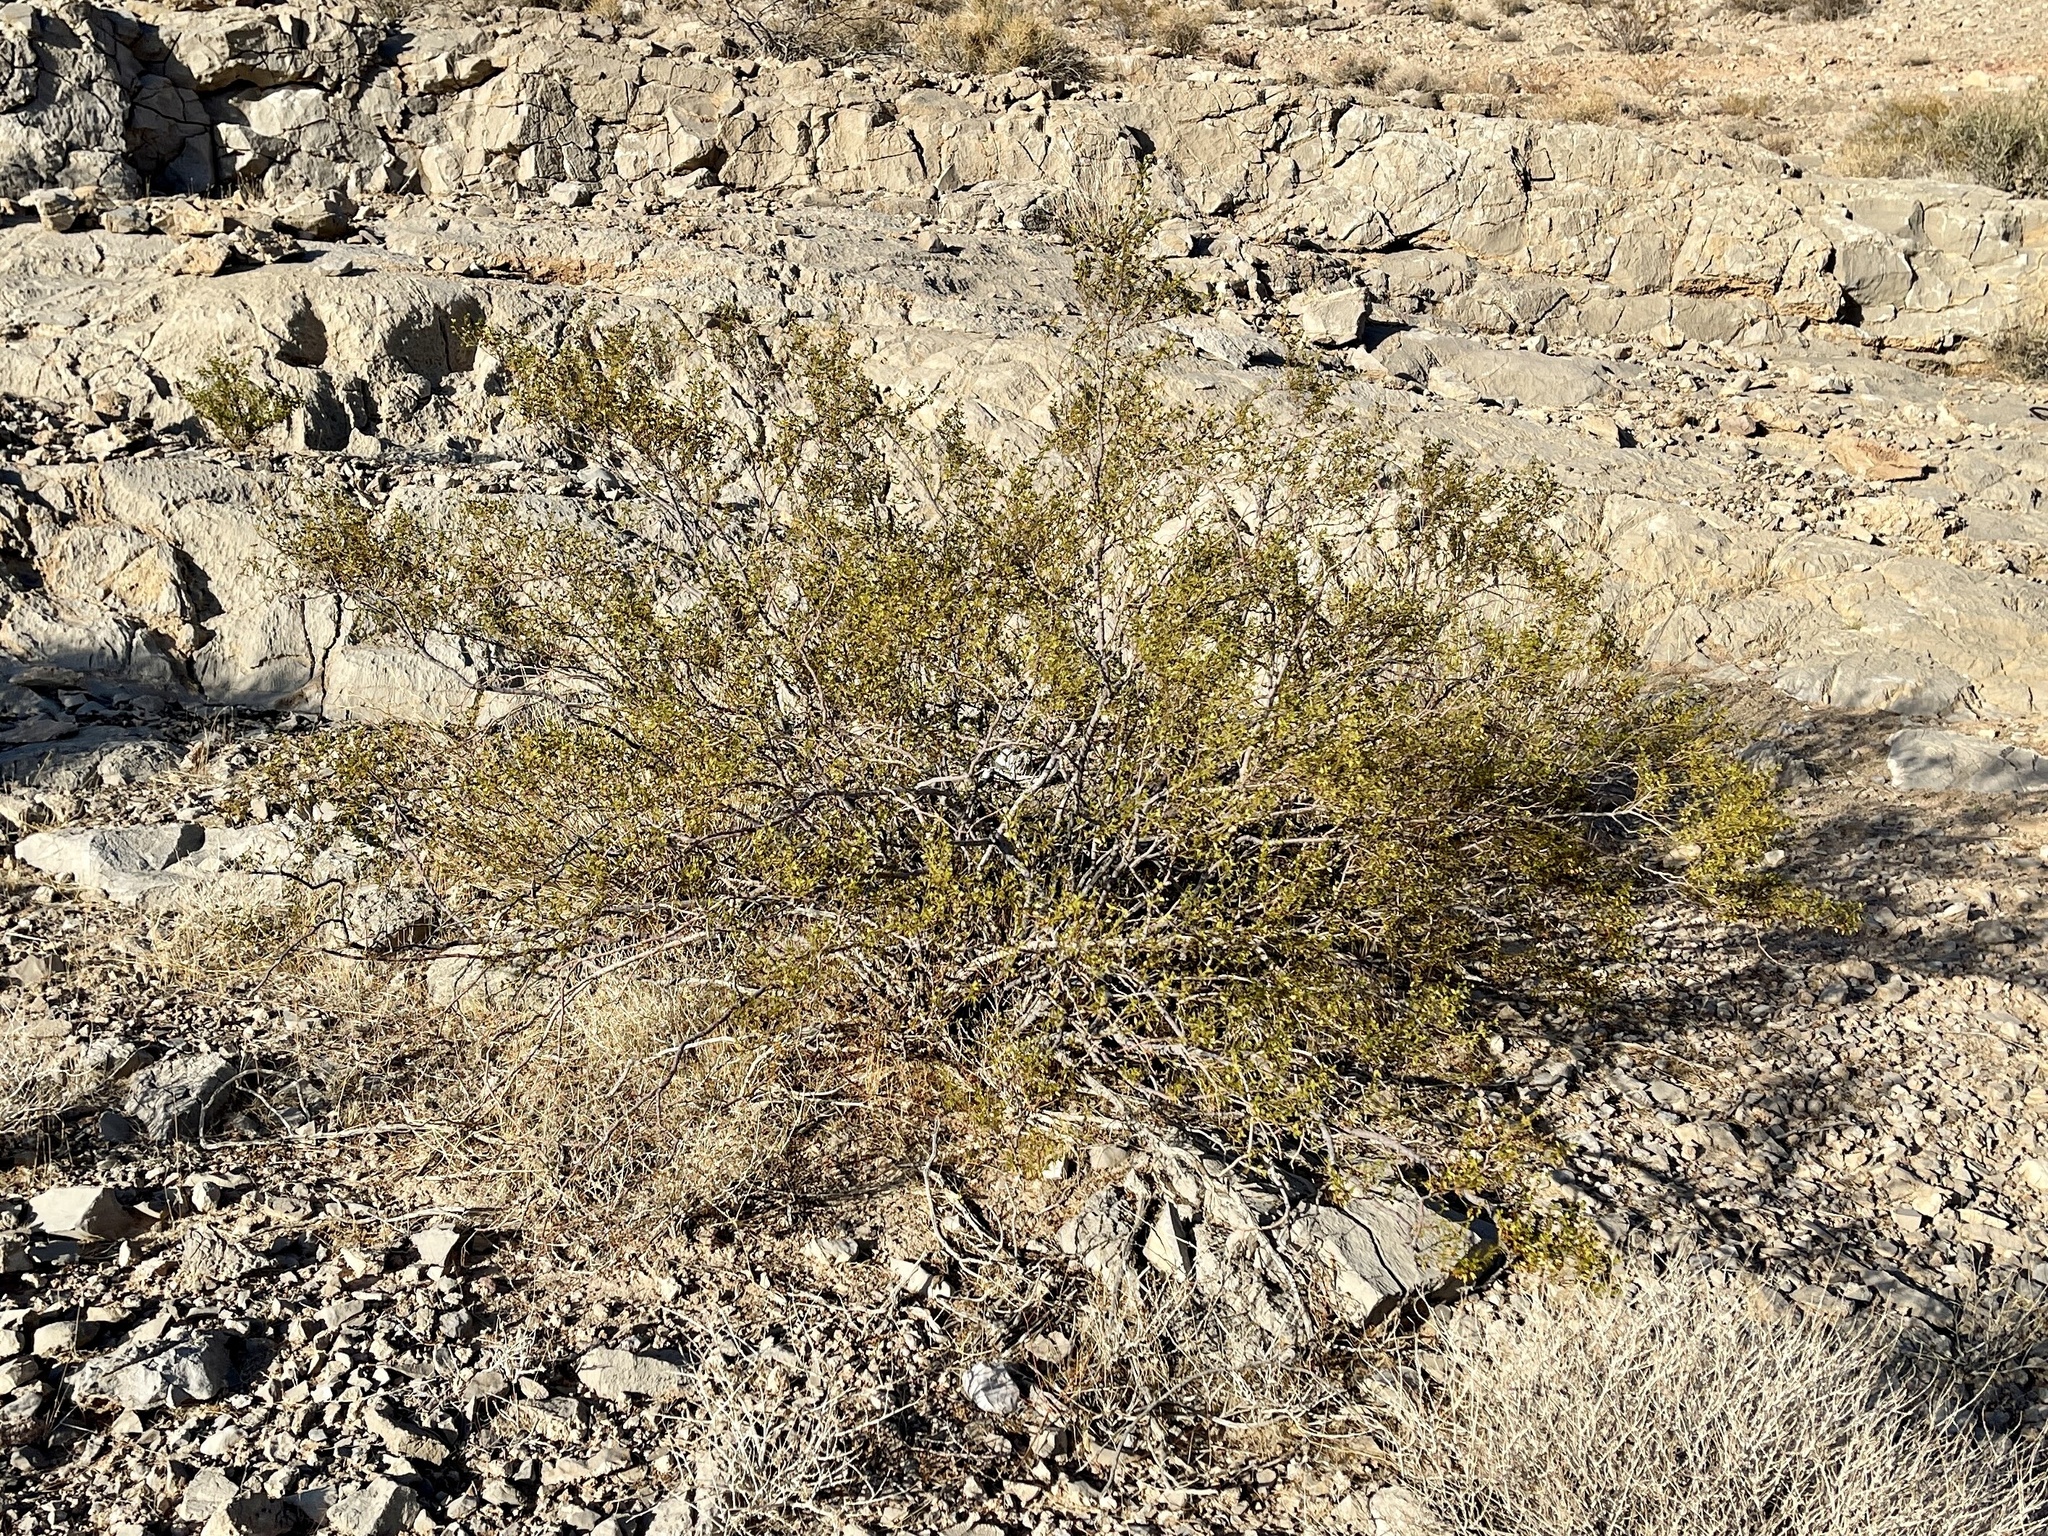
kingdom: Plantae
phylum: Tracheophyta
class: Magnoliopsida
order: Zygophyllales
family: Zygophyllaceae
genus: Larrea
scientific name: Larrea tridentata
